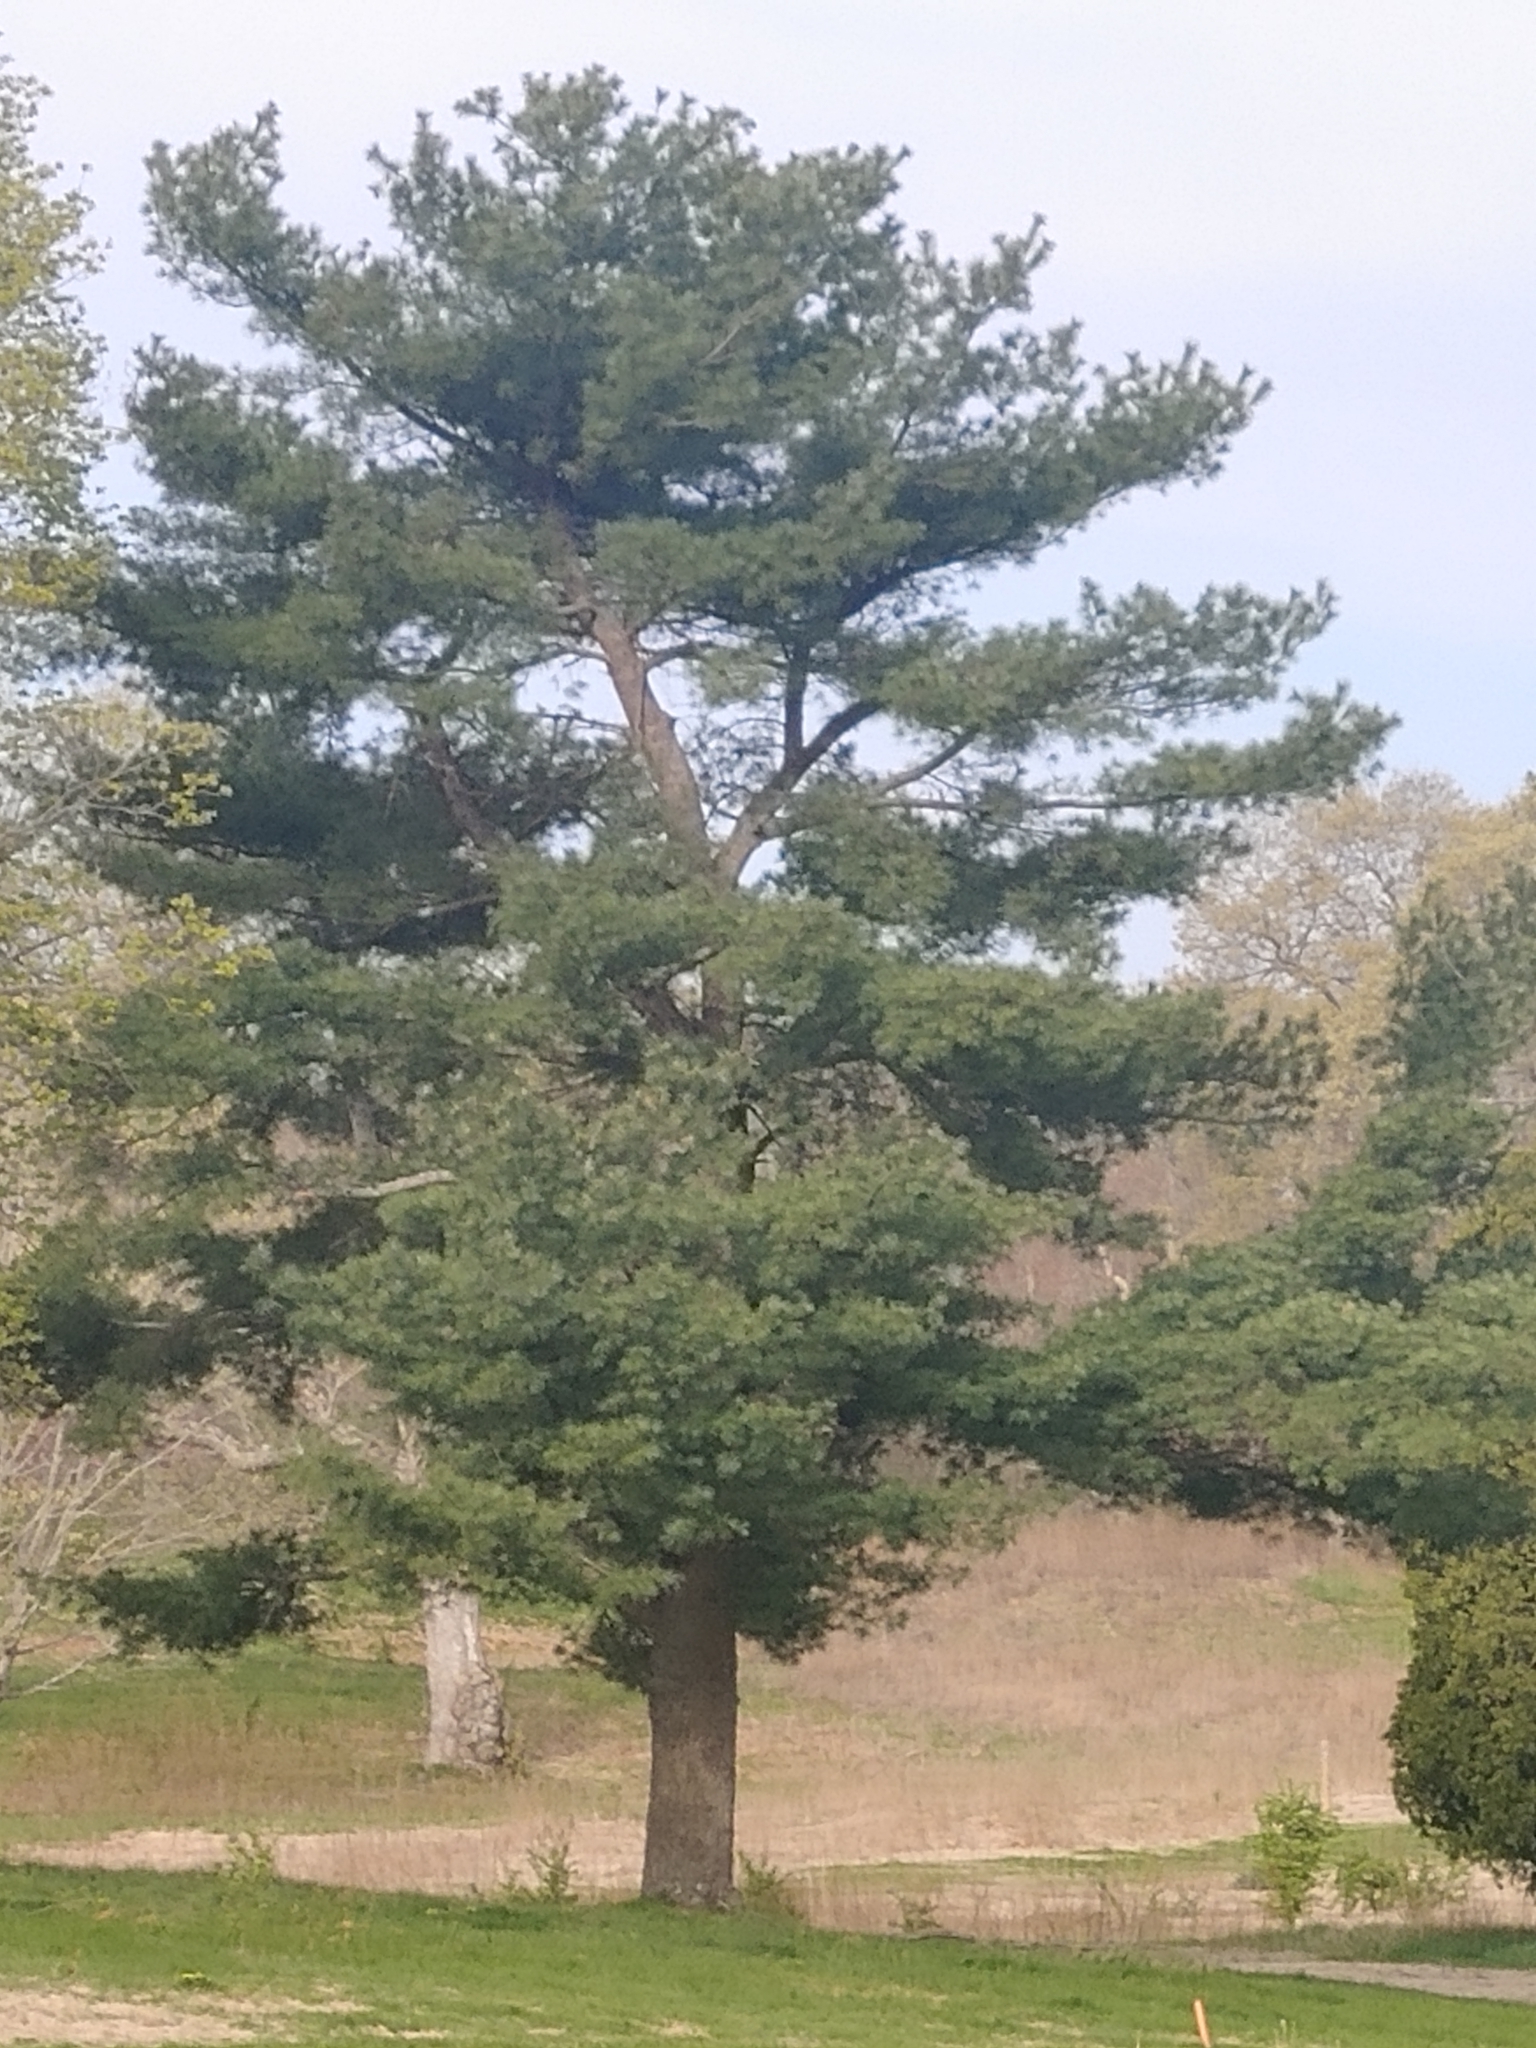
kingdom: Plantae
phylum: Tracheophyta
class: Pinopsida
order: Pinales
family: Pinaceae
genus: Pinus
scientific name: Pinus strobus
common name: Weymouth pine
